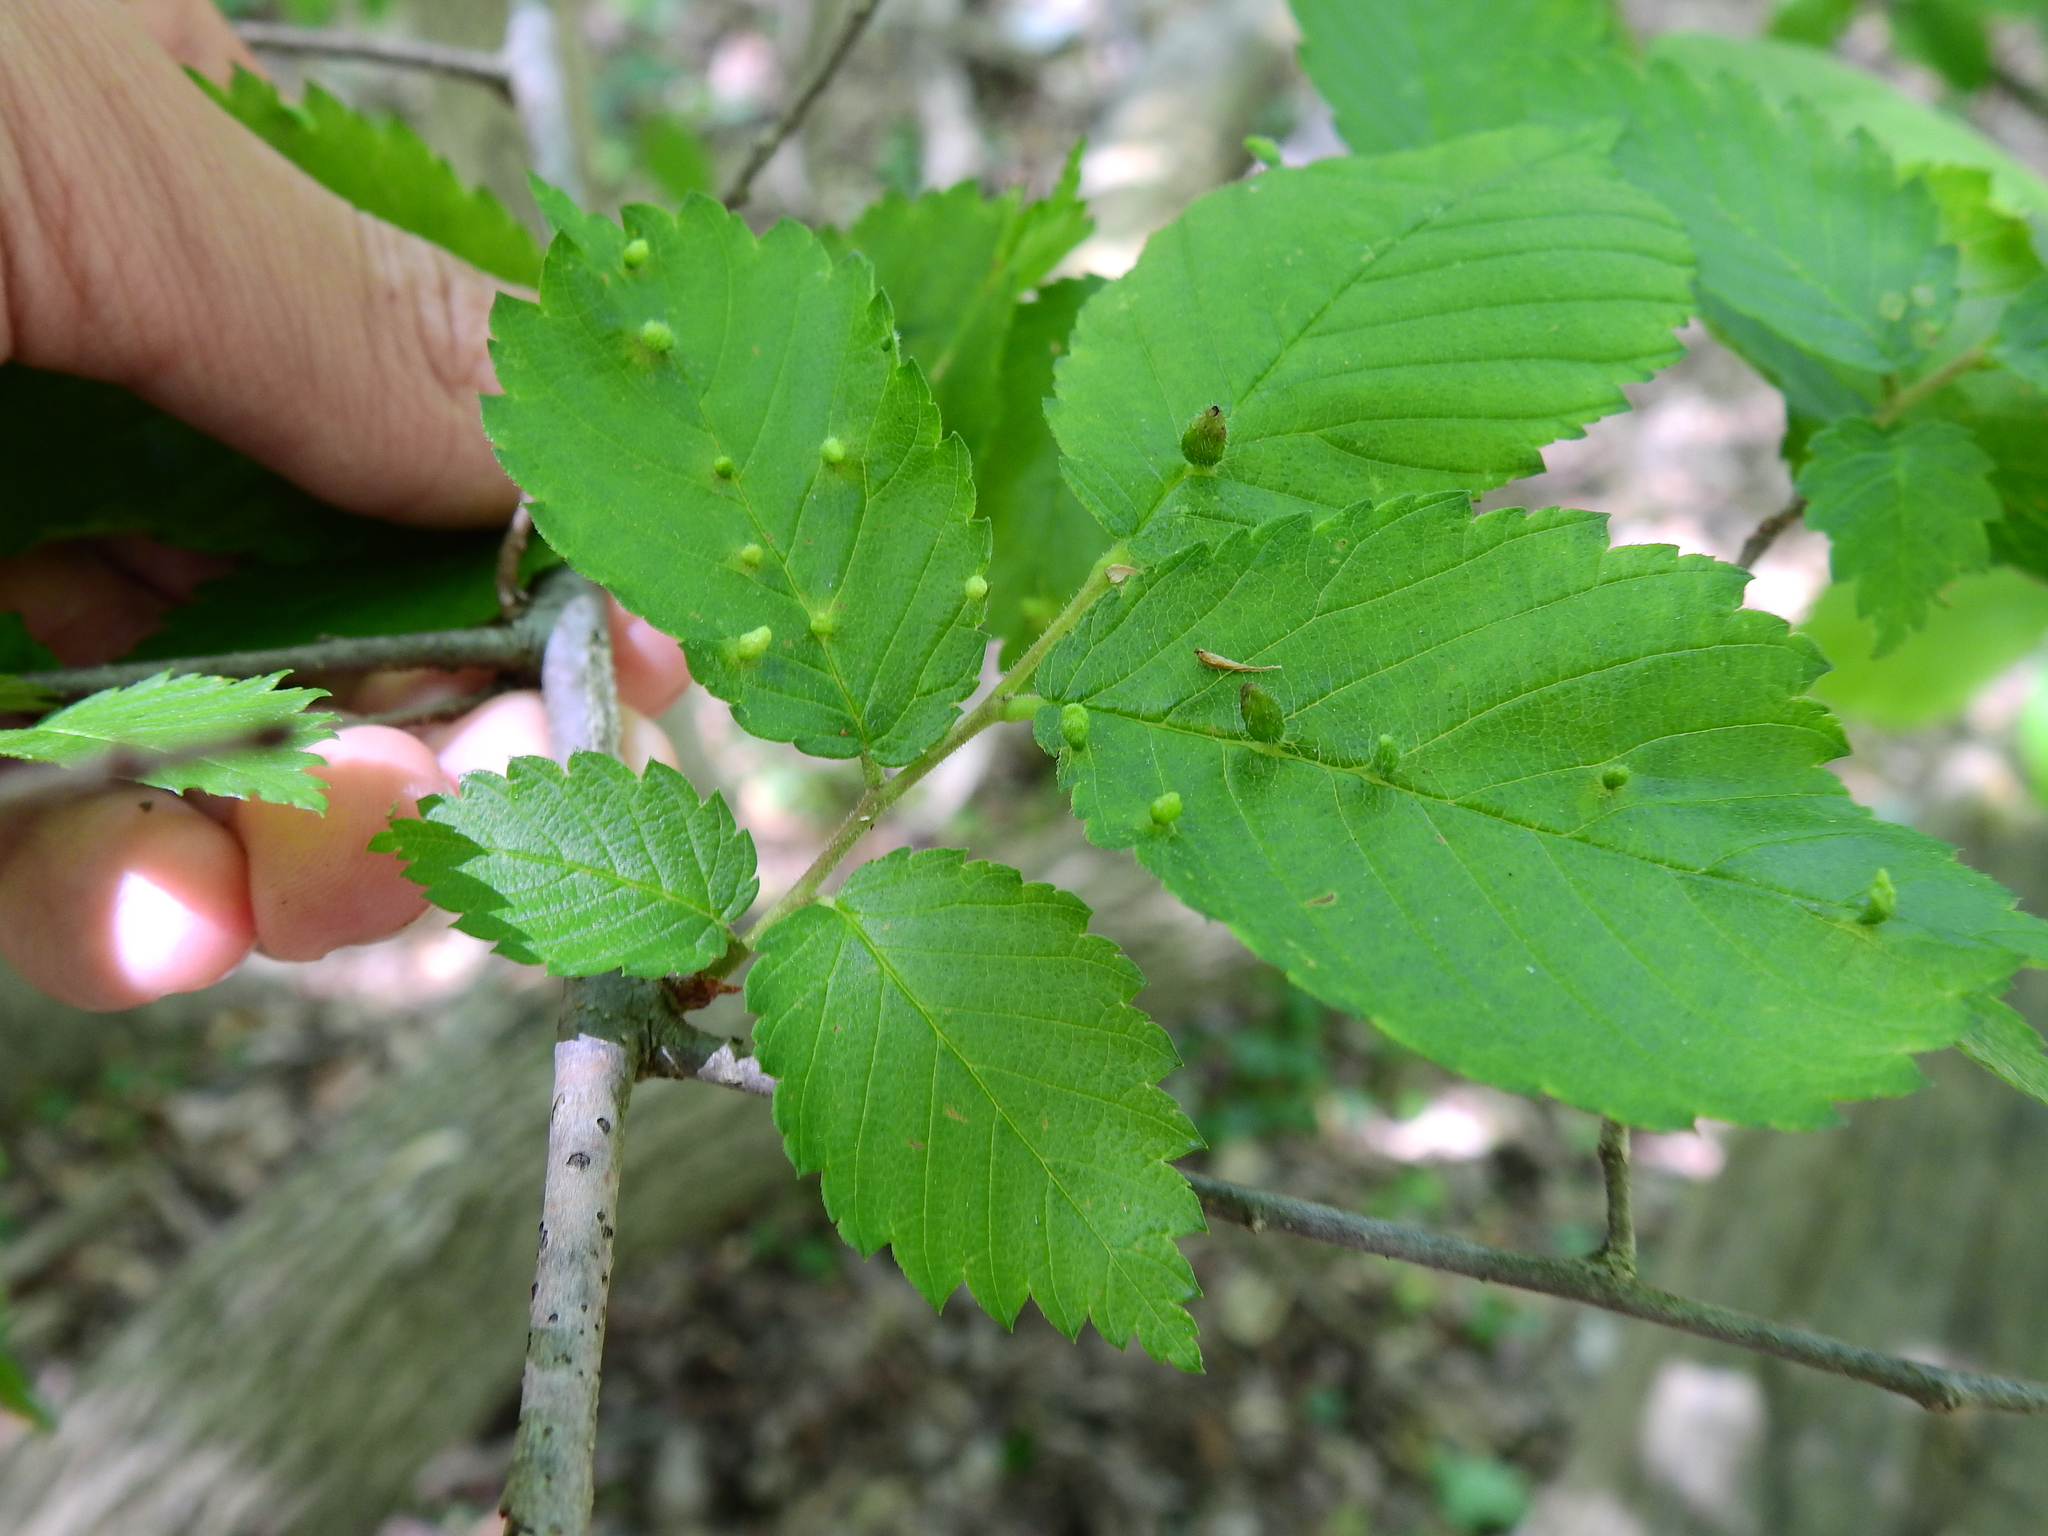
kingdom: Animalia
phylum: Arthropoda
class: Arachnida
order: Trombidiformes
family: Eriophyidae
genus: Aceria
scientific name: Aceria
